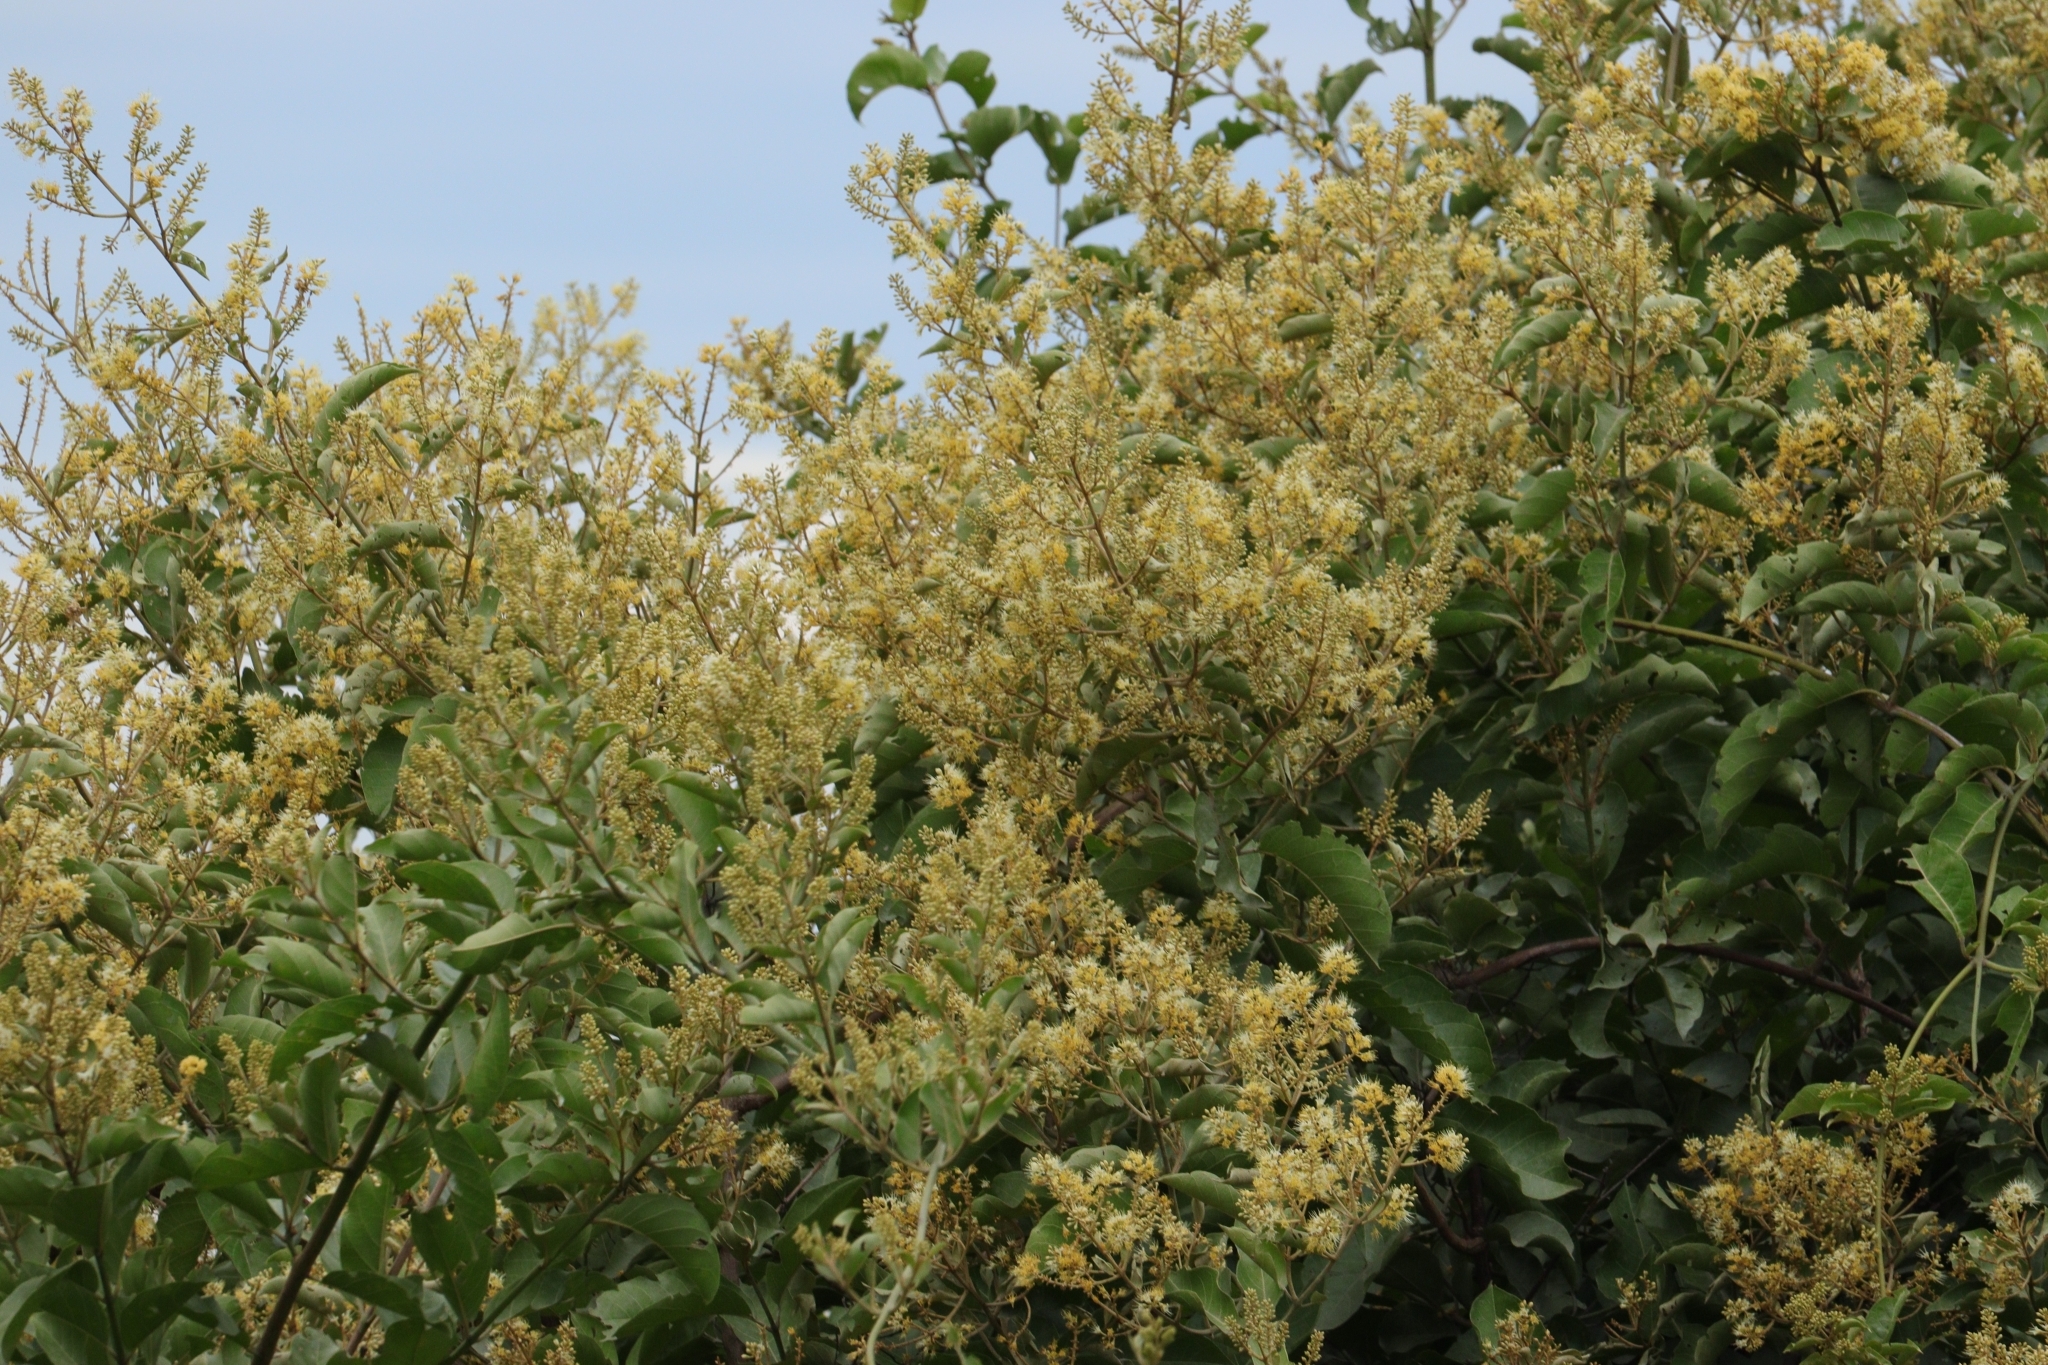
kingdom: Plantae
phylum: Tracheophyta
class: Magnoliopsida
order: Myrtales
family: Combretaceae
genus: Combretum
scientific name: Combretum leprosum
